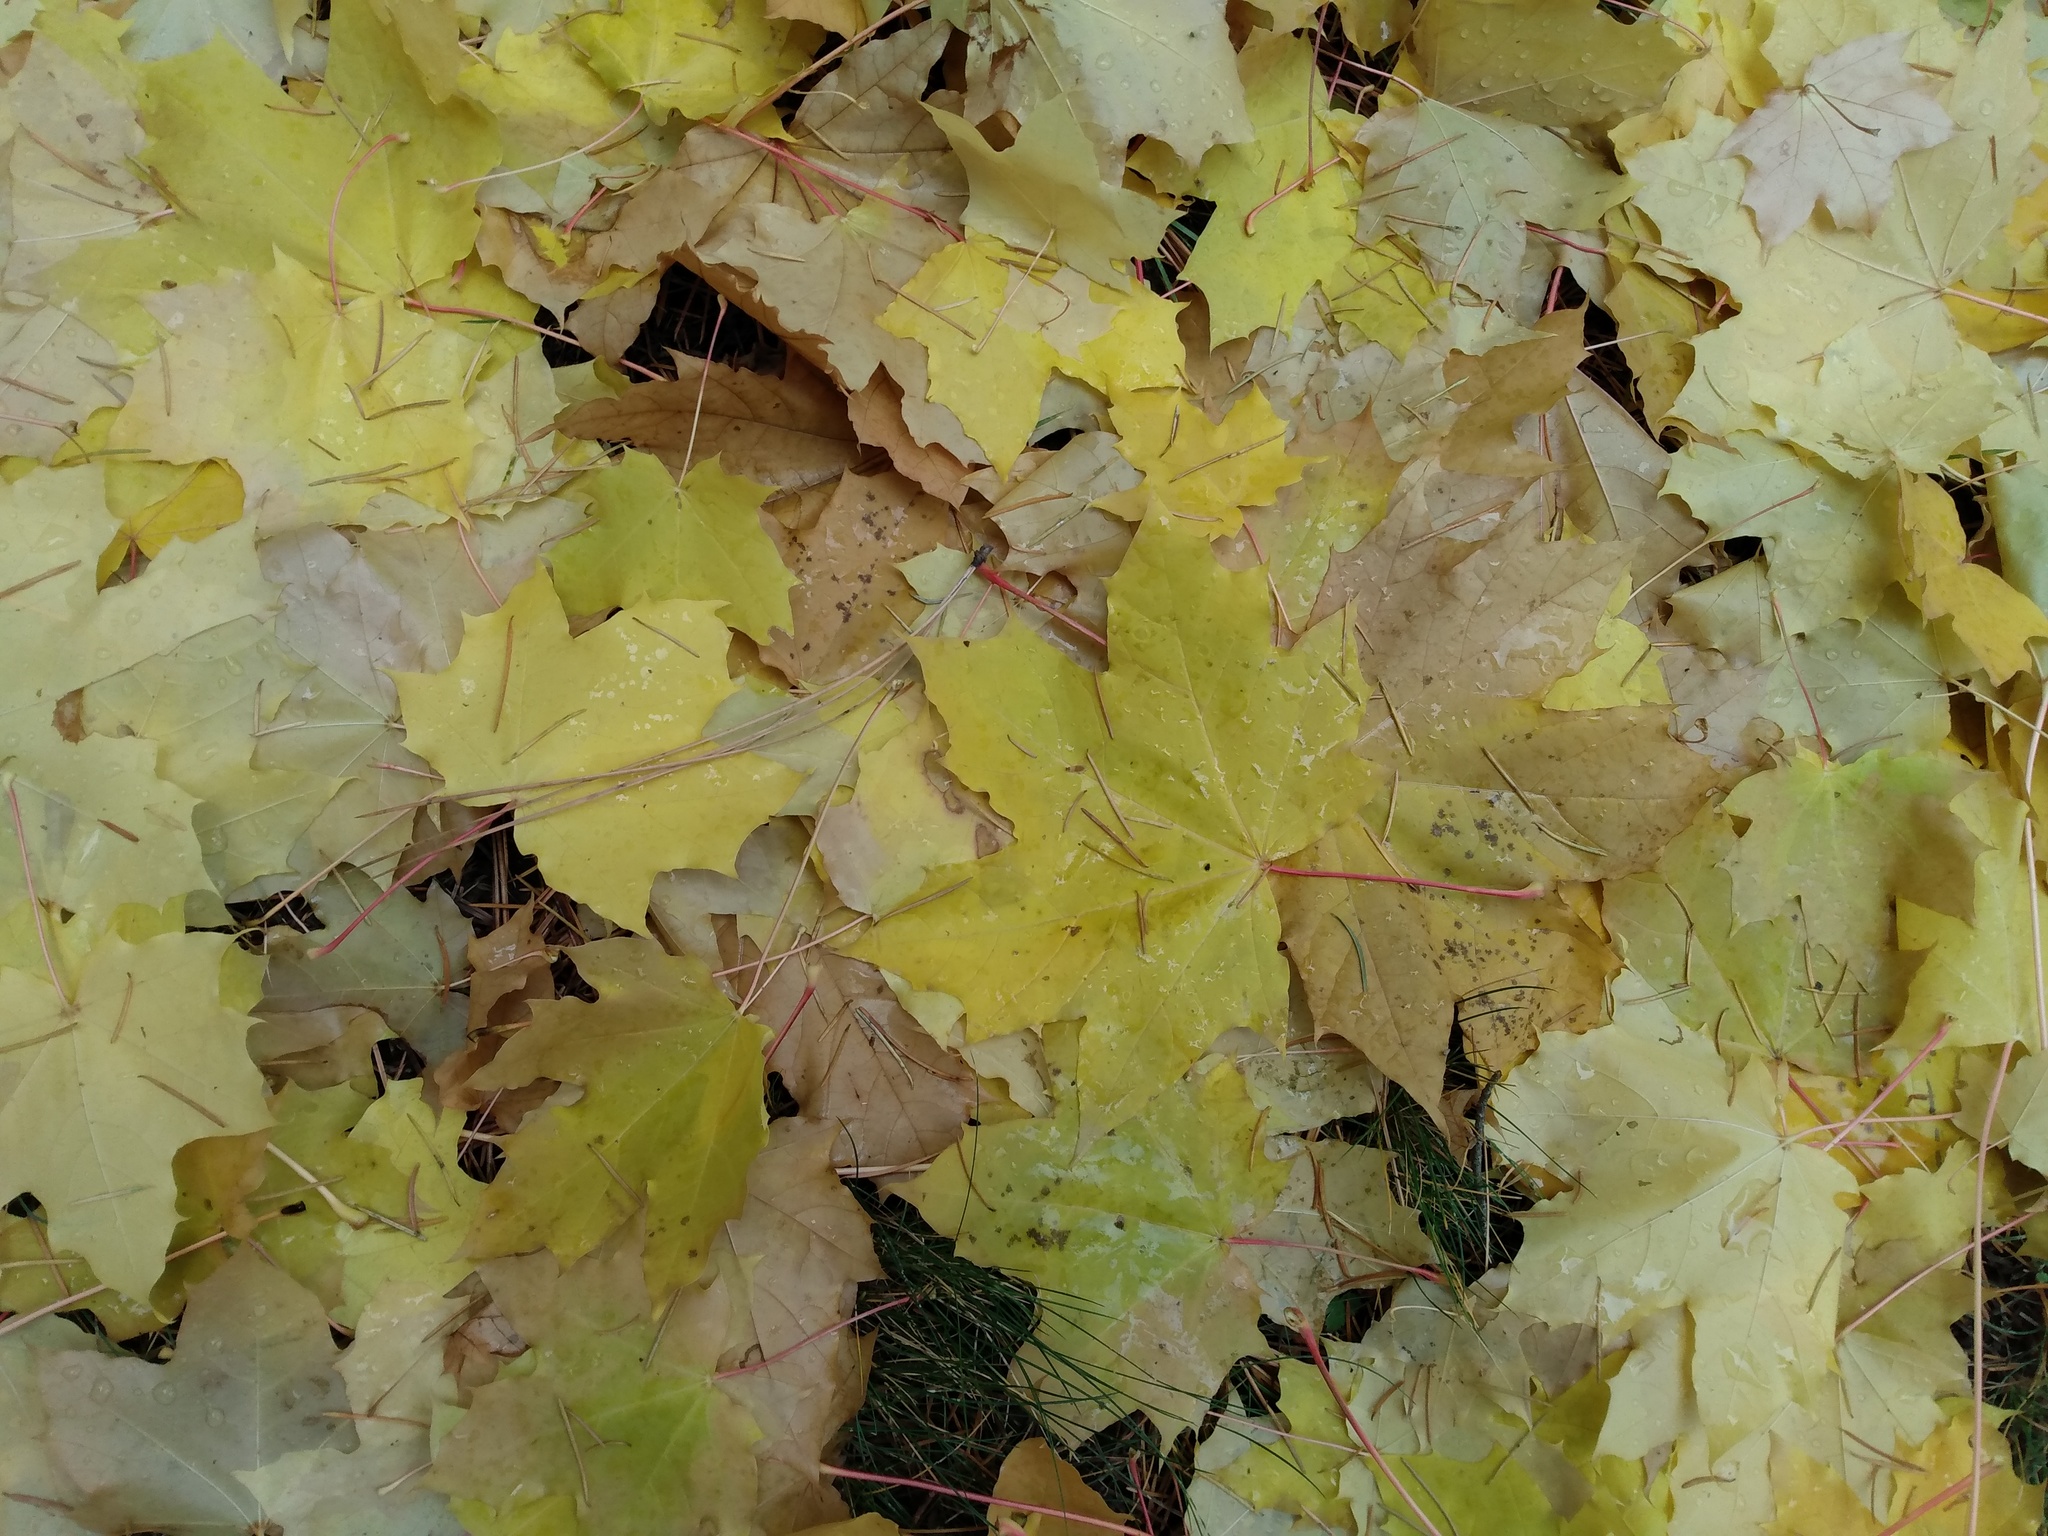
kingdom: Plantae
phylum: Tracheophyta
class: Magnoliopsida
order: Sapindales
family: Sapindaceae
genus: Acer
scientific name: Acer platanoides
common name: Norway maple
